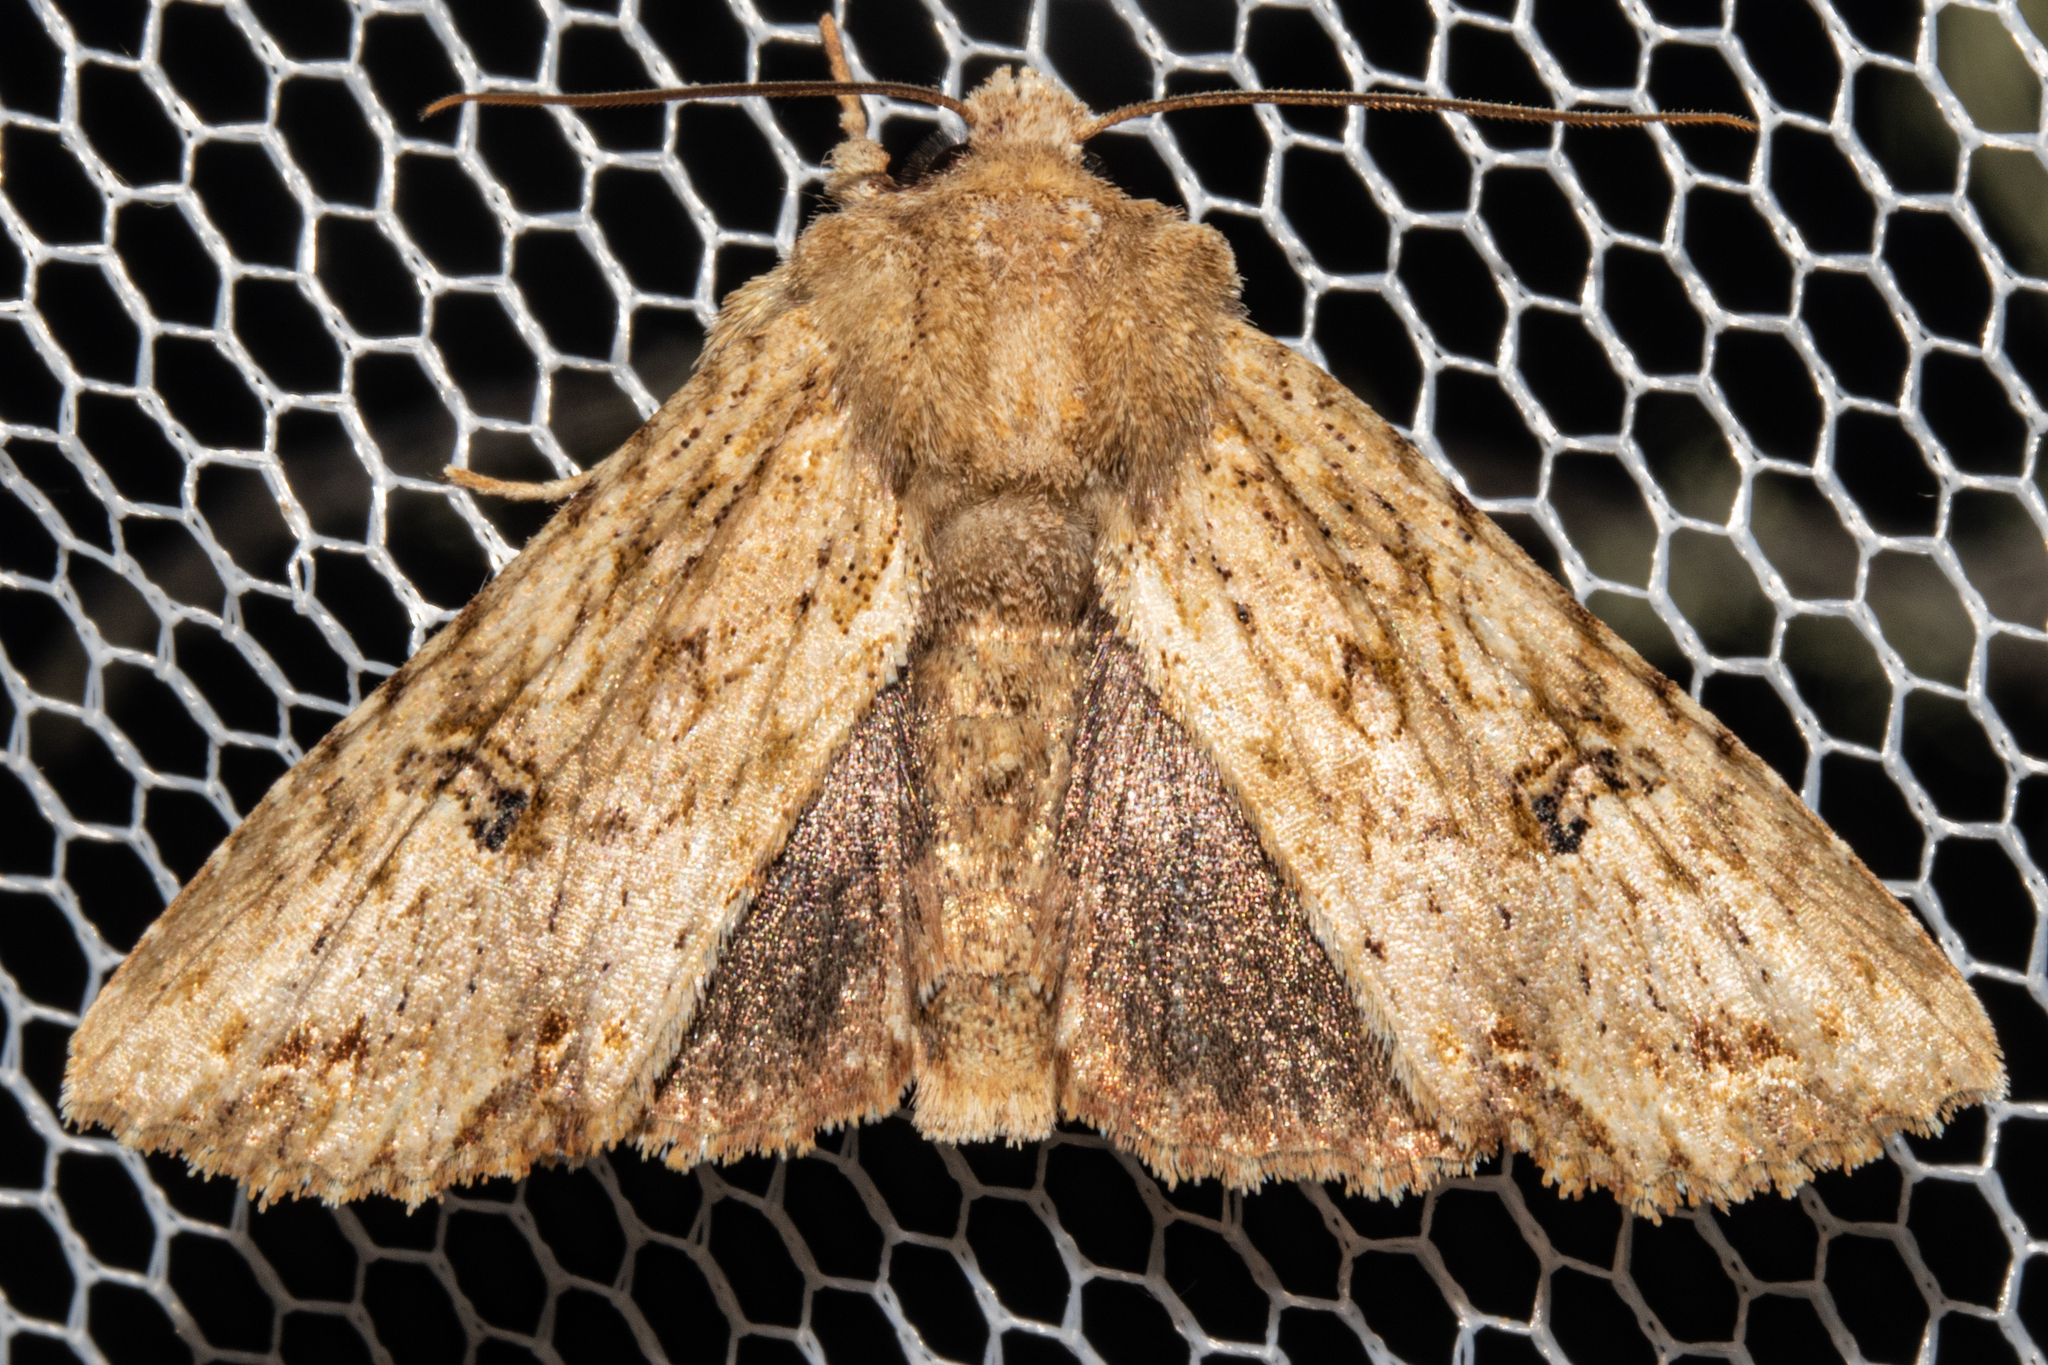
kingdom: Animalia
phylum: Arthropoda
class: Insecta
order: Lepidoptera
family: Noctuidae
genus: Meterana
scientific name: Meterana pascoei
